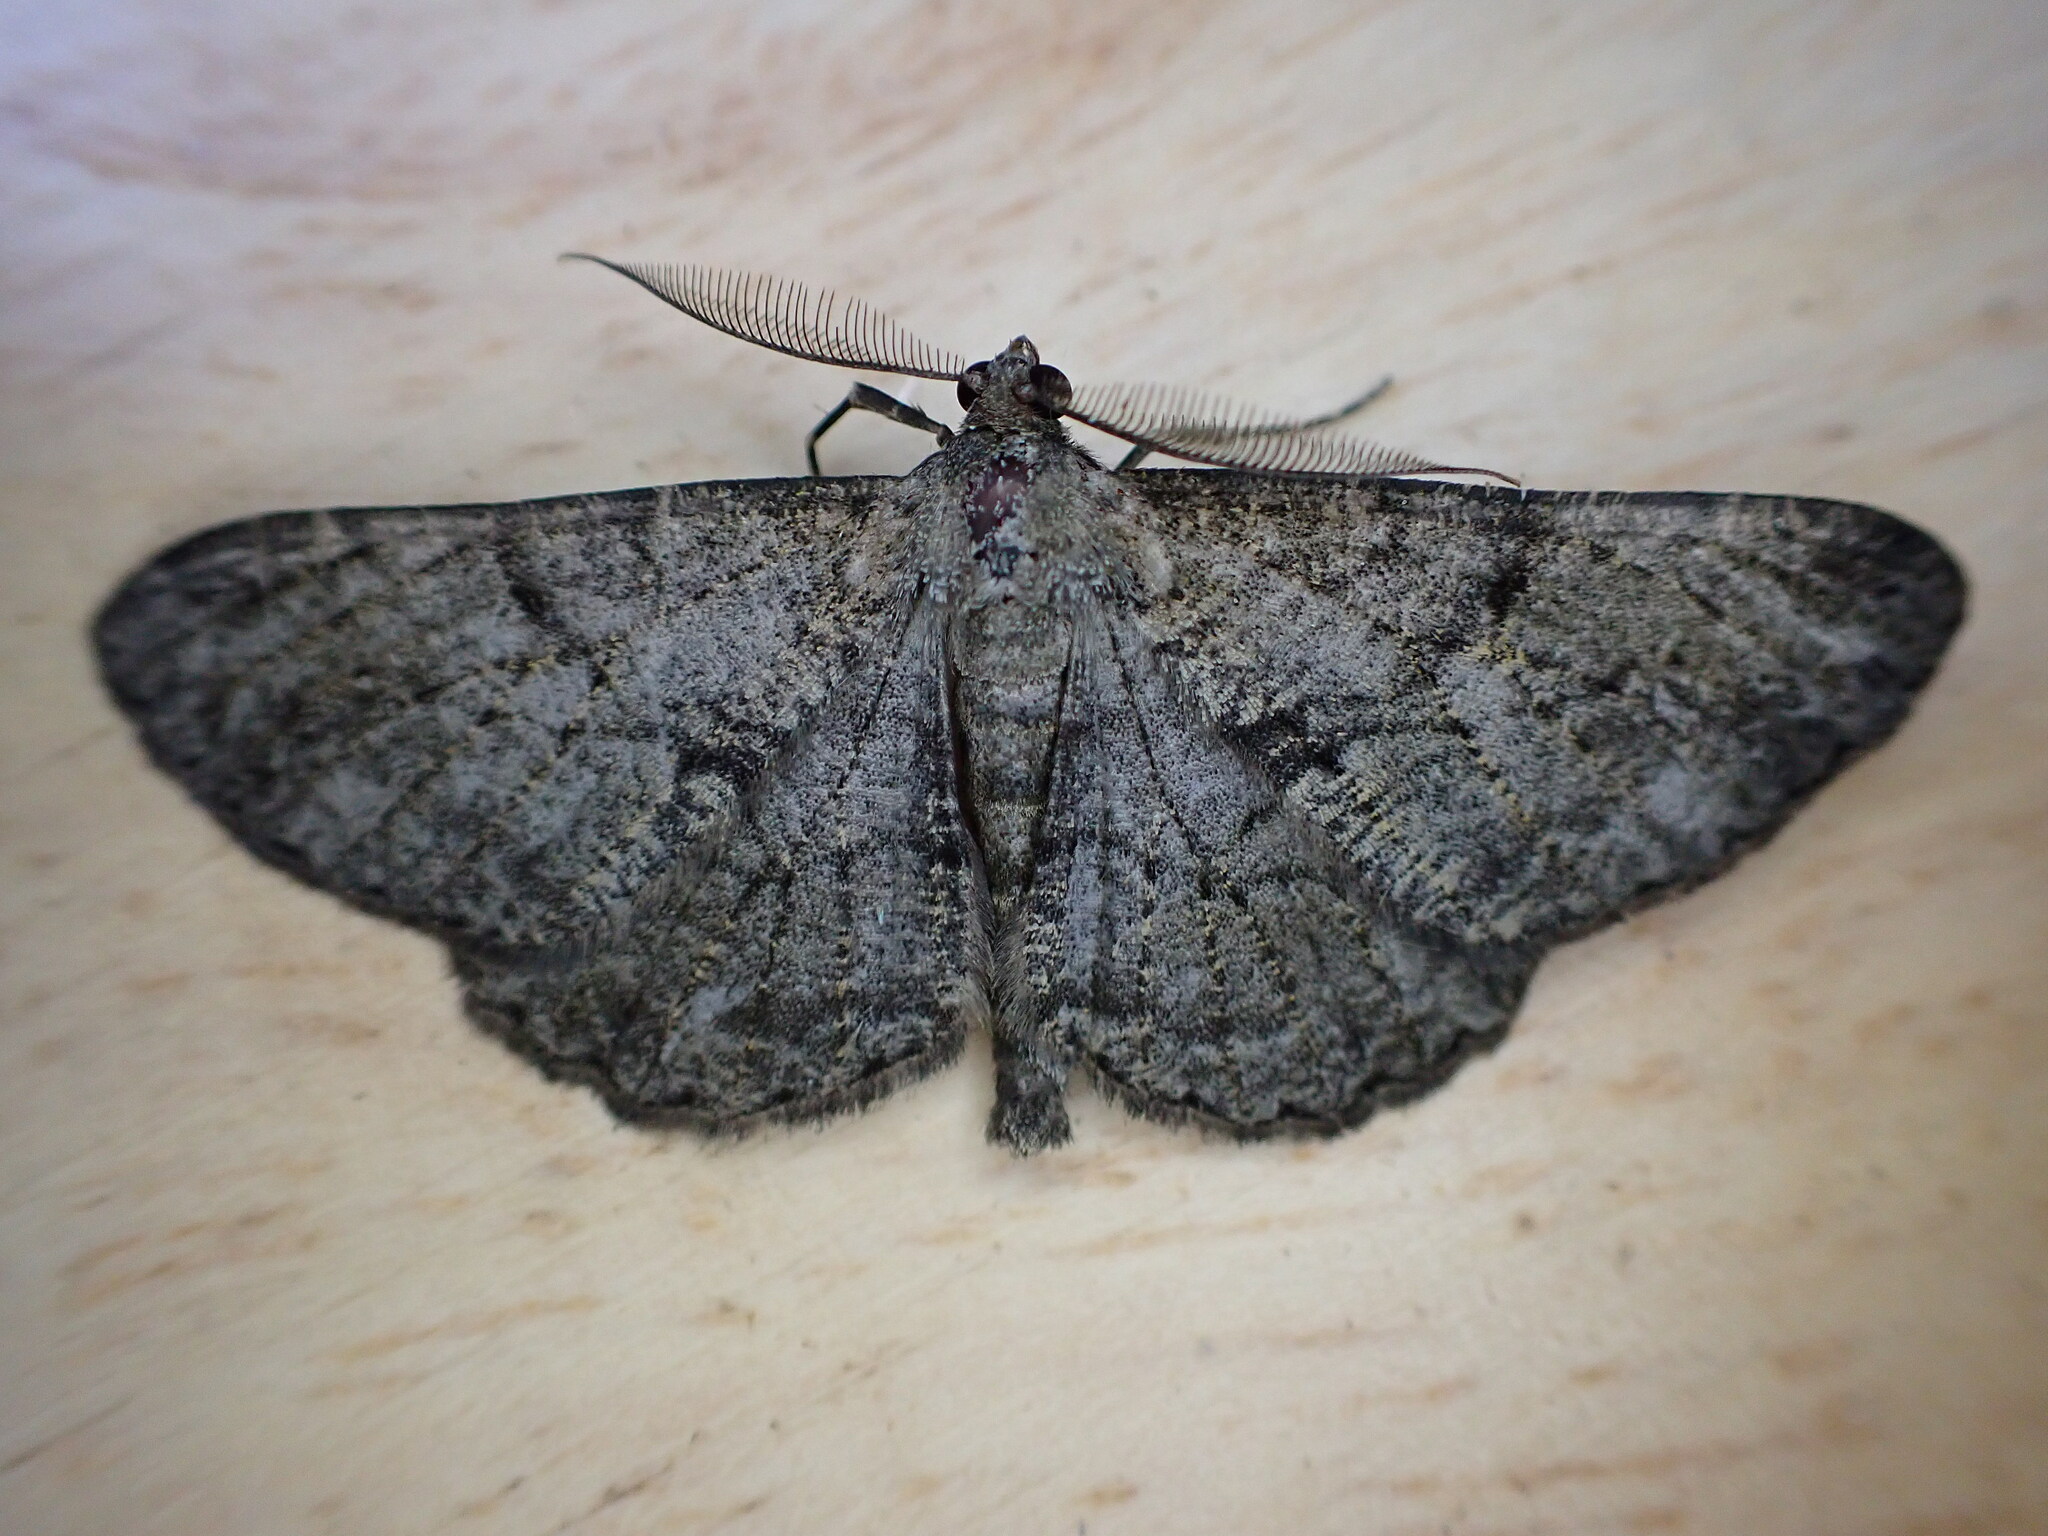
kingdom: Animalia
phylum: Arthropoda
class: Insecta
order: Lepidoptera
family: Geometridae
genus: Peribatodes
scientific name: Peribatodes rhomboidaria
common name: Willow beauty
